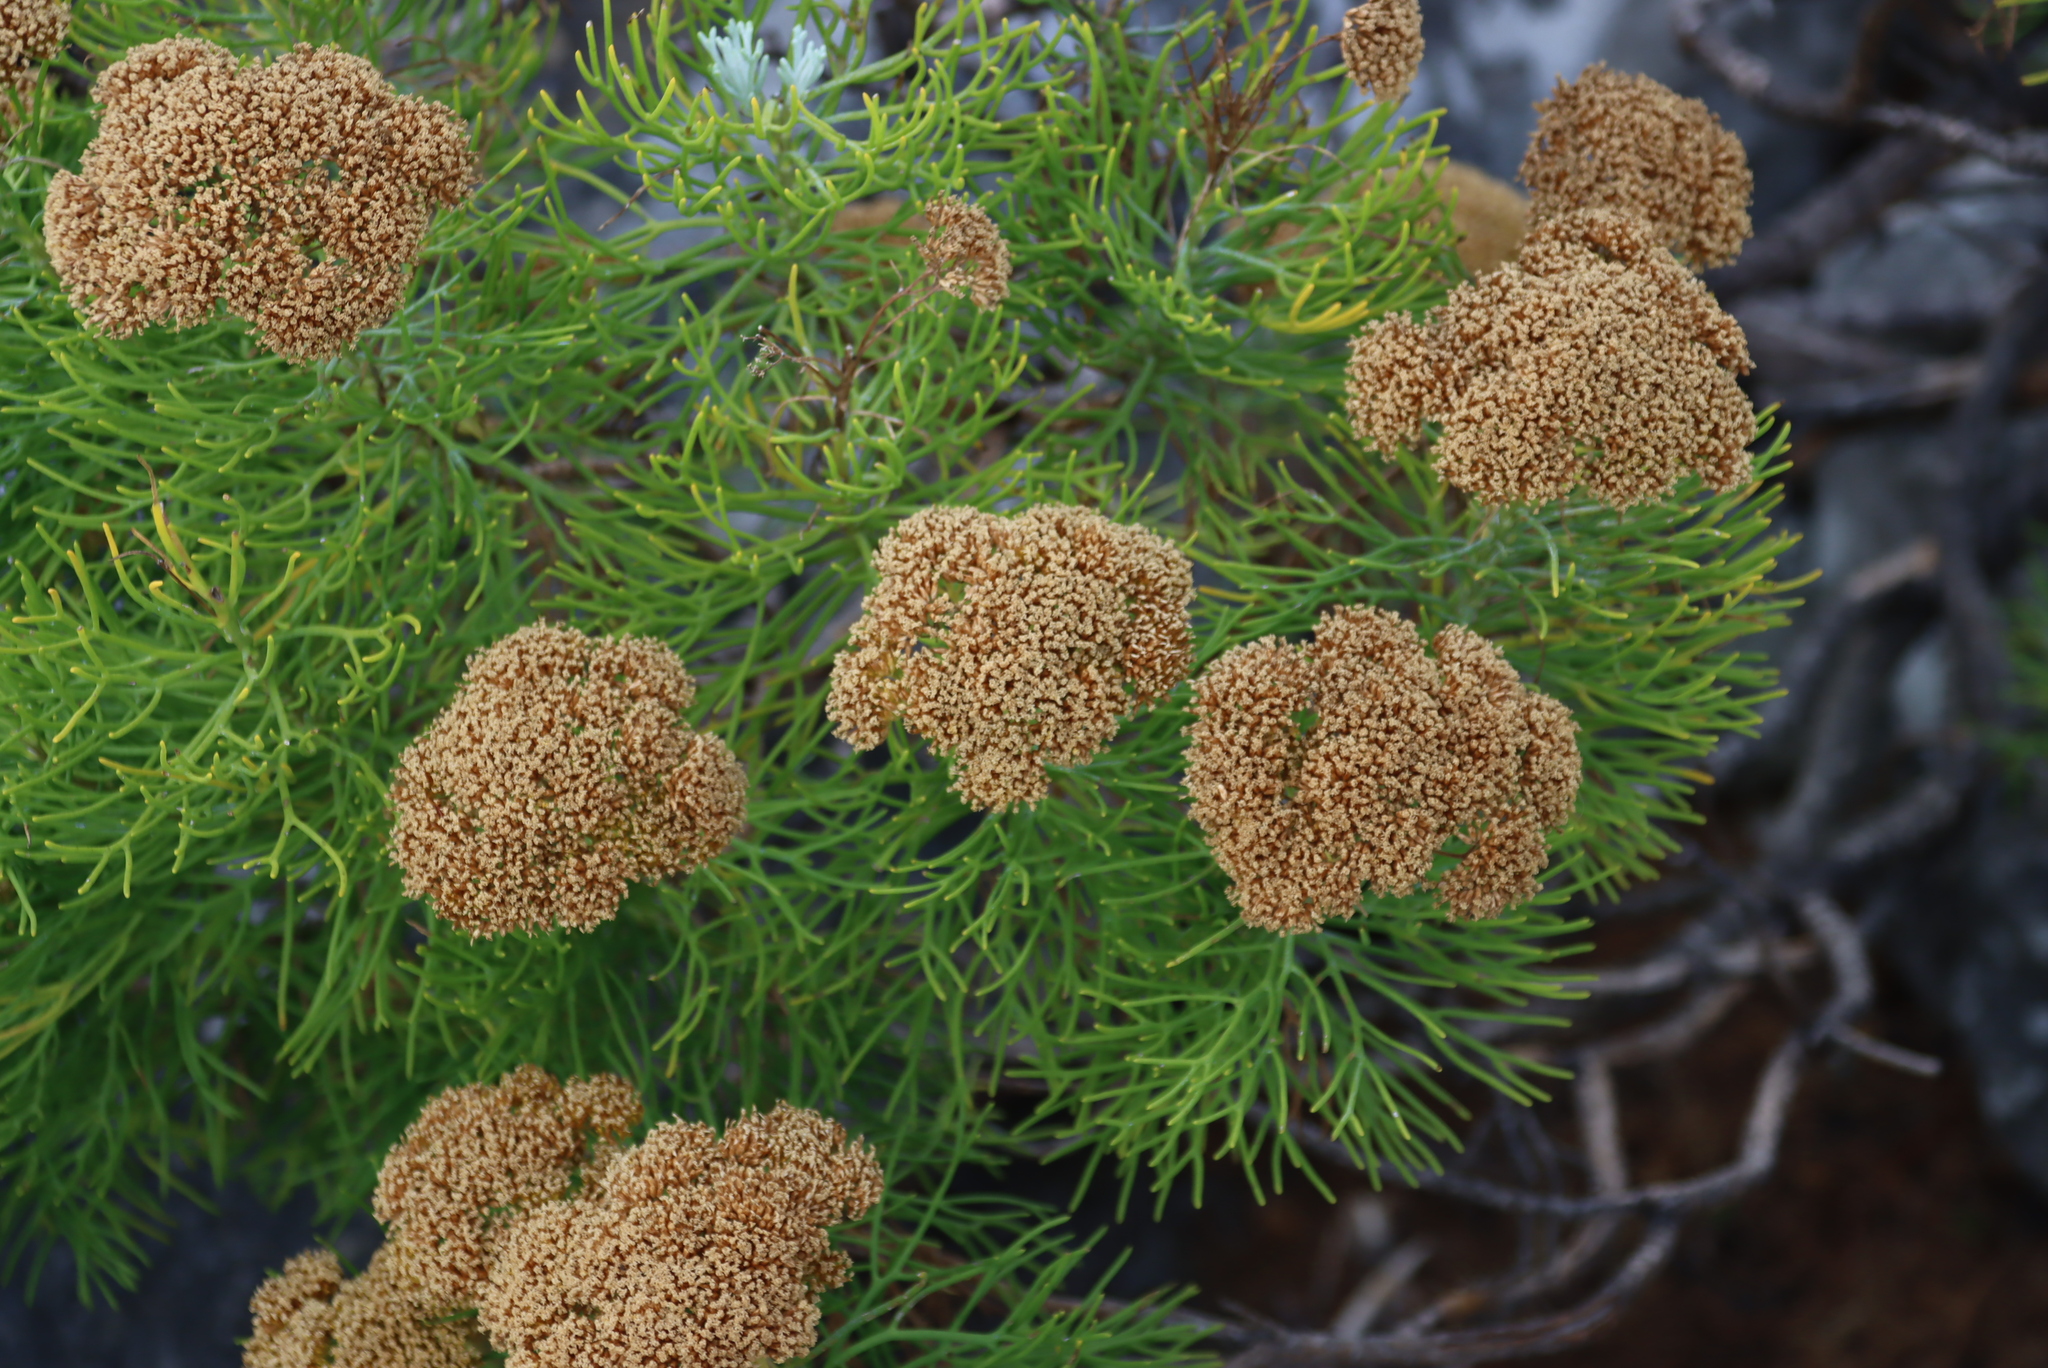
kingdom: Plantae
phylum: Tracheophyta
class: Magnoliopsida
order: Asterales
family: Asteraceae
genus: Hymenolepis
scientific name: Hymenolepis crithmifolia
